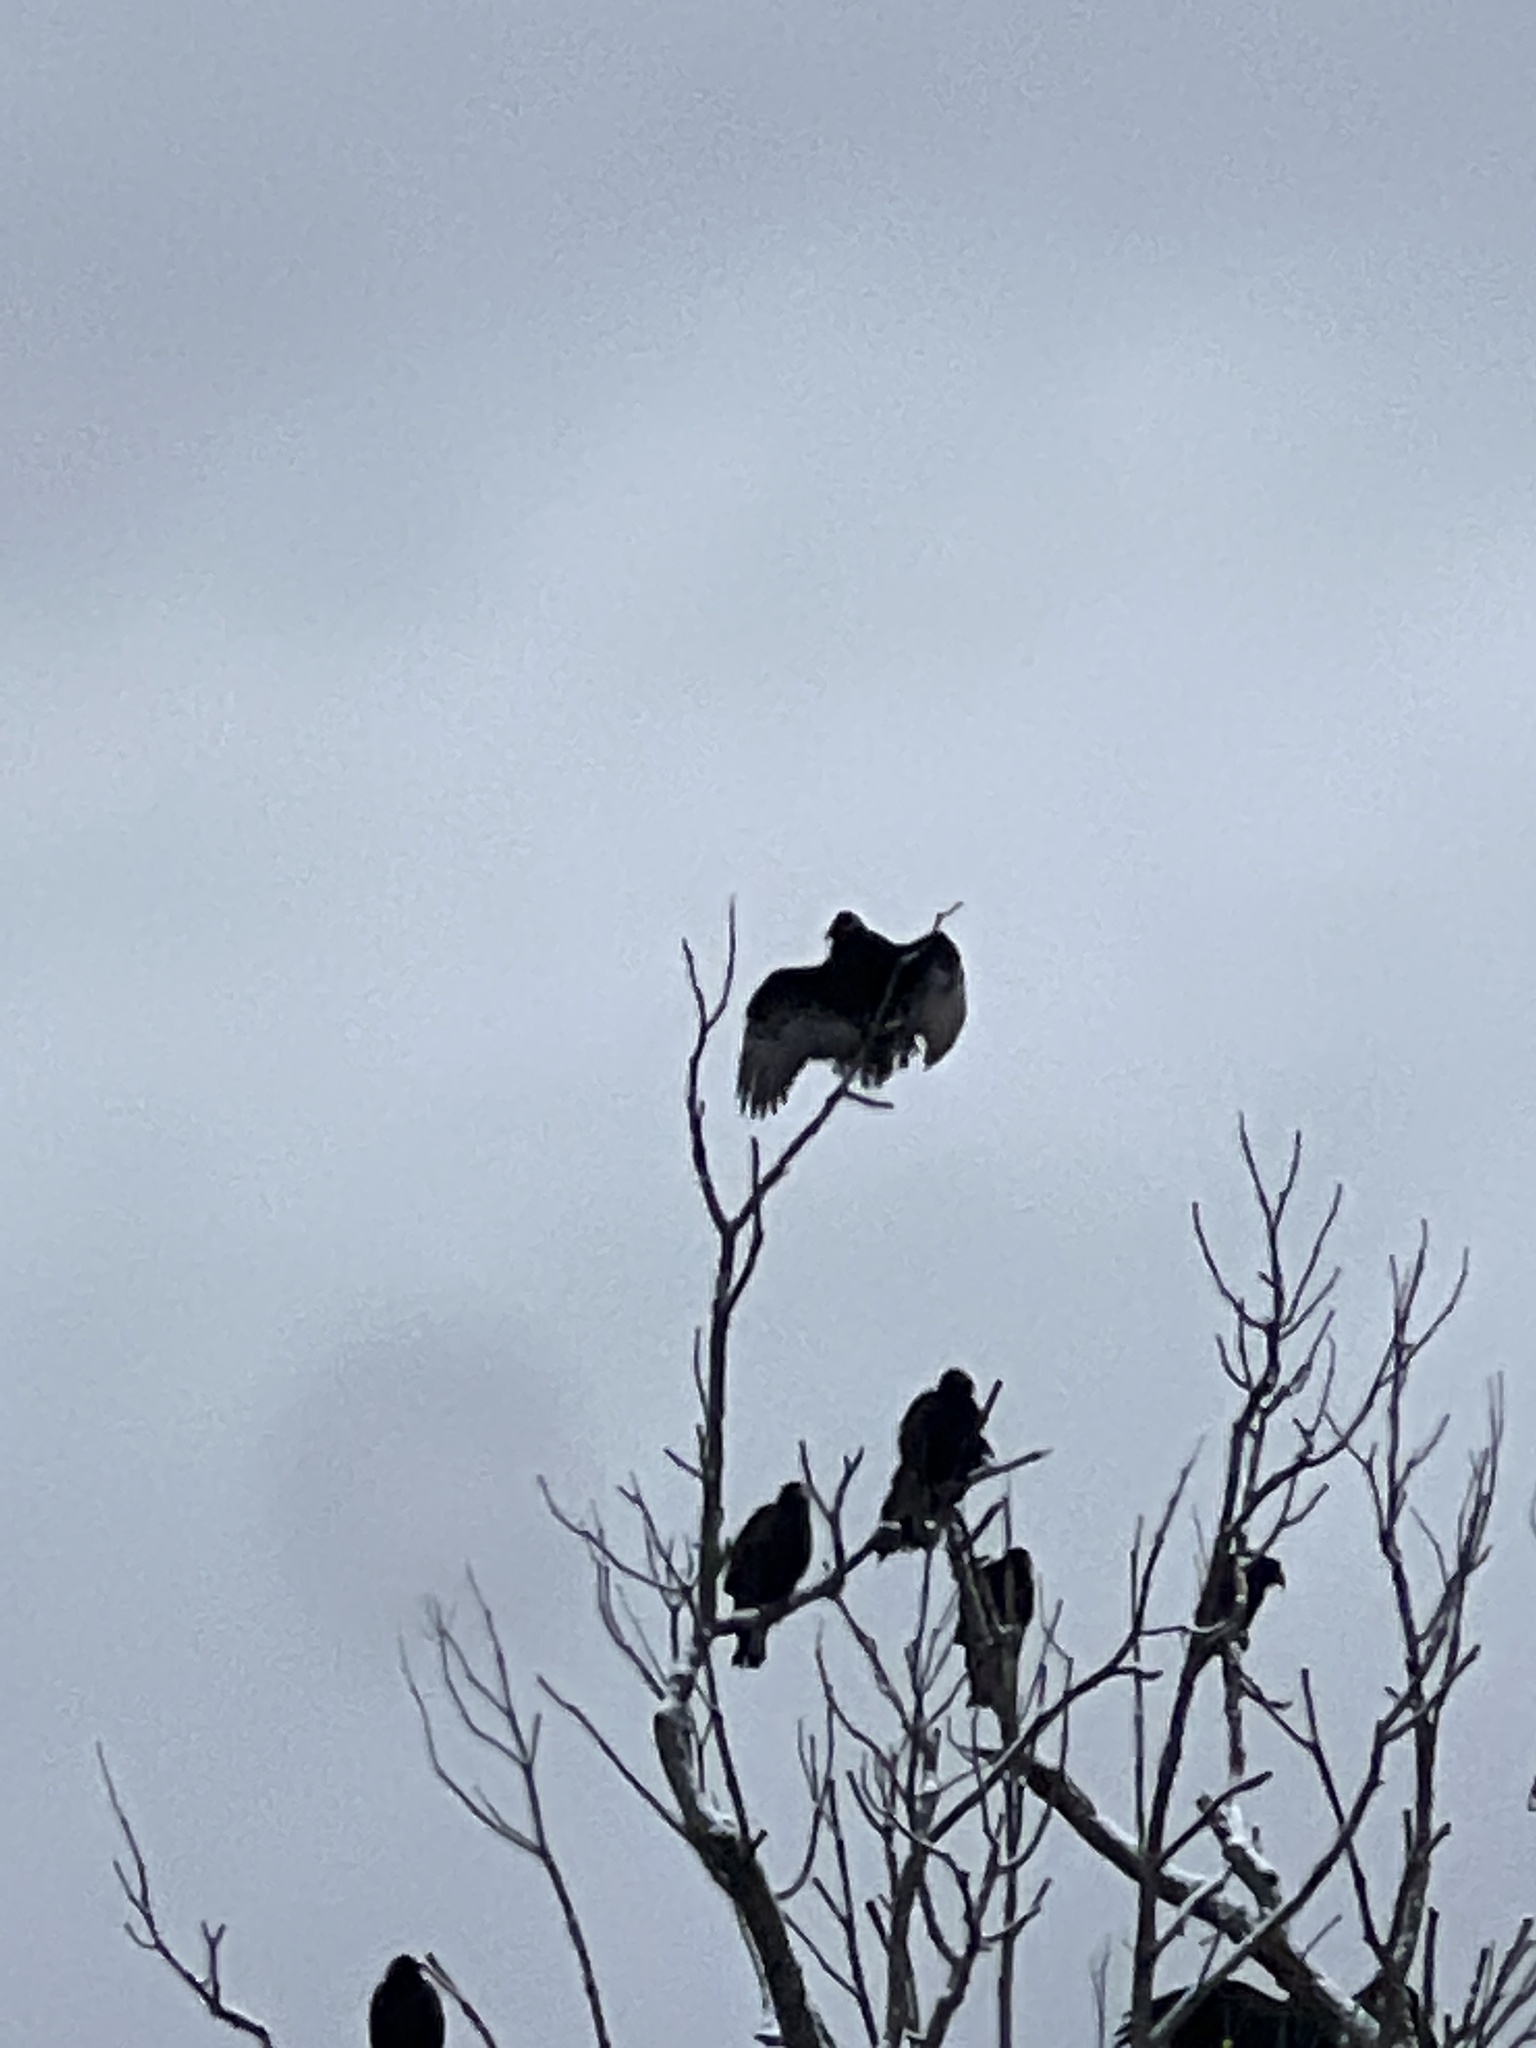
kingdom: Animalia
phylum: Chordata
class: Aves
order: Accipitriformes
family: Cathartidae
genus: Cathartes
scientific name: Cathartes aura
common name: Turkey vulture
